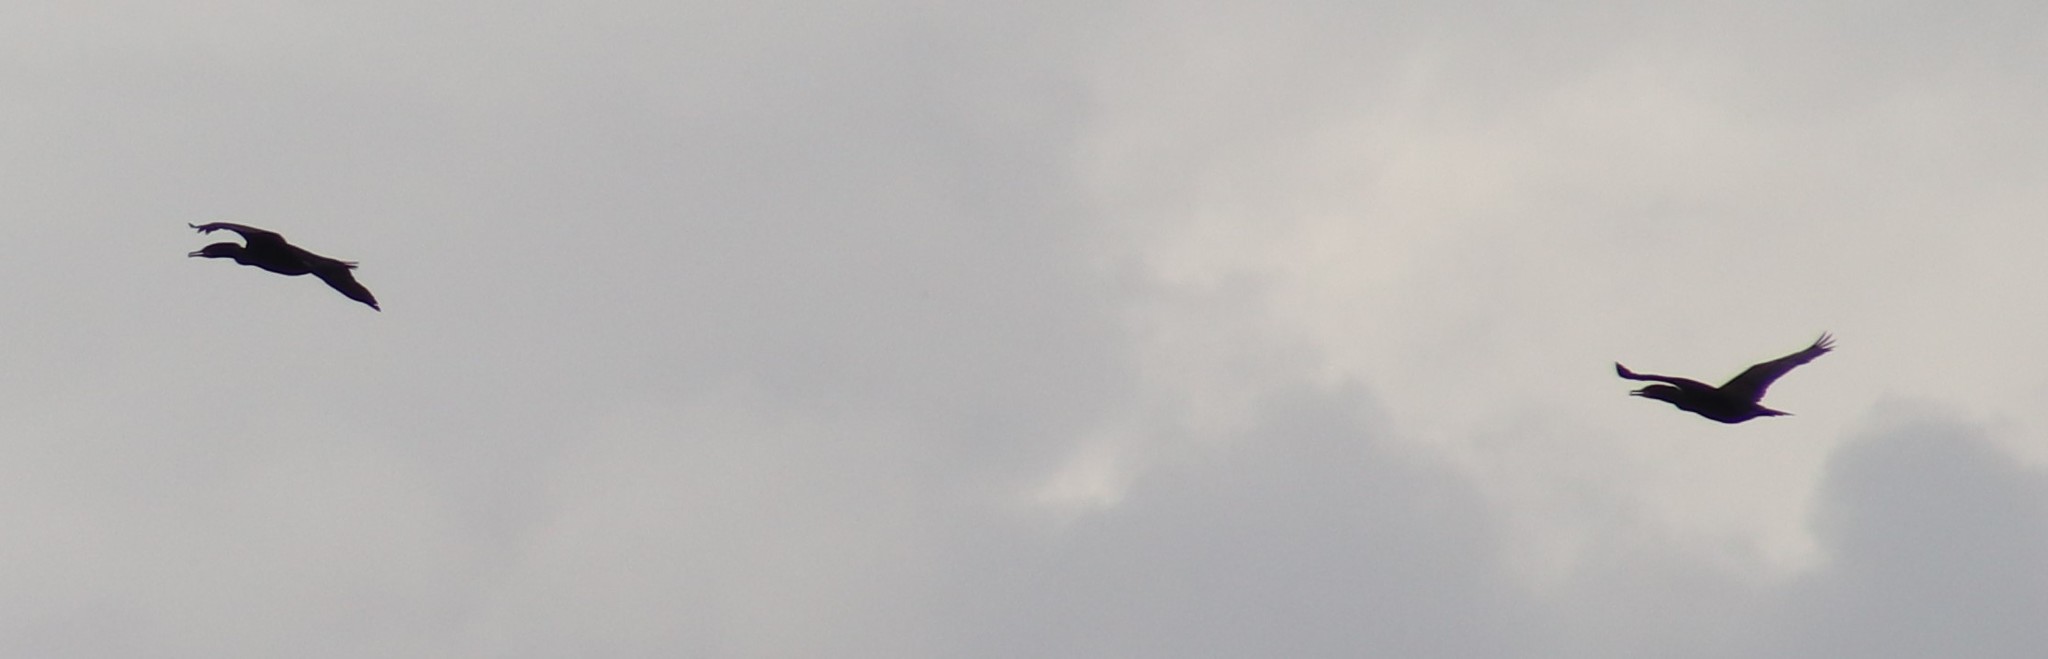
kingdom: Animalia
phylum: Chordata
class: Aves
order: Suliformes
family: Phalacrocoracidae
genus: Phalacrocorax
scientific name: Phalacrocorax auritus
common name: Double-crested cormorant
